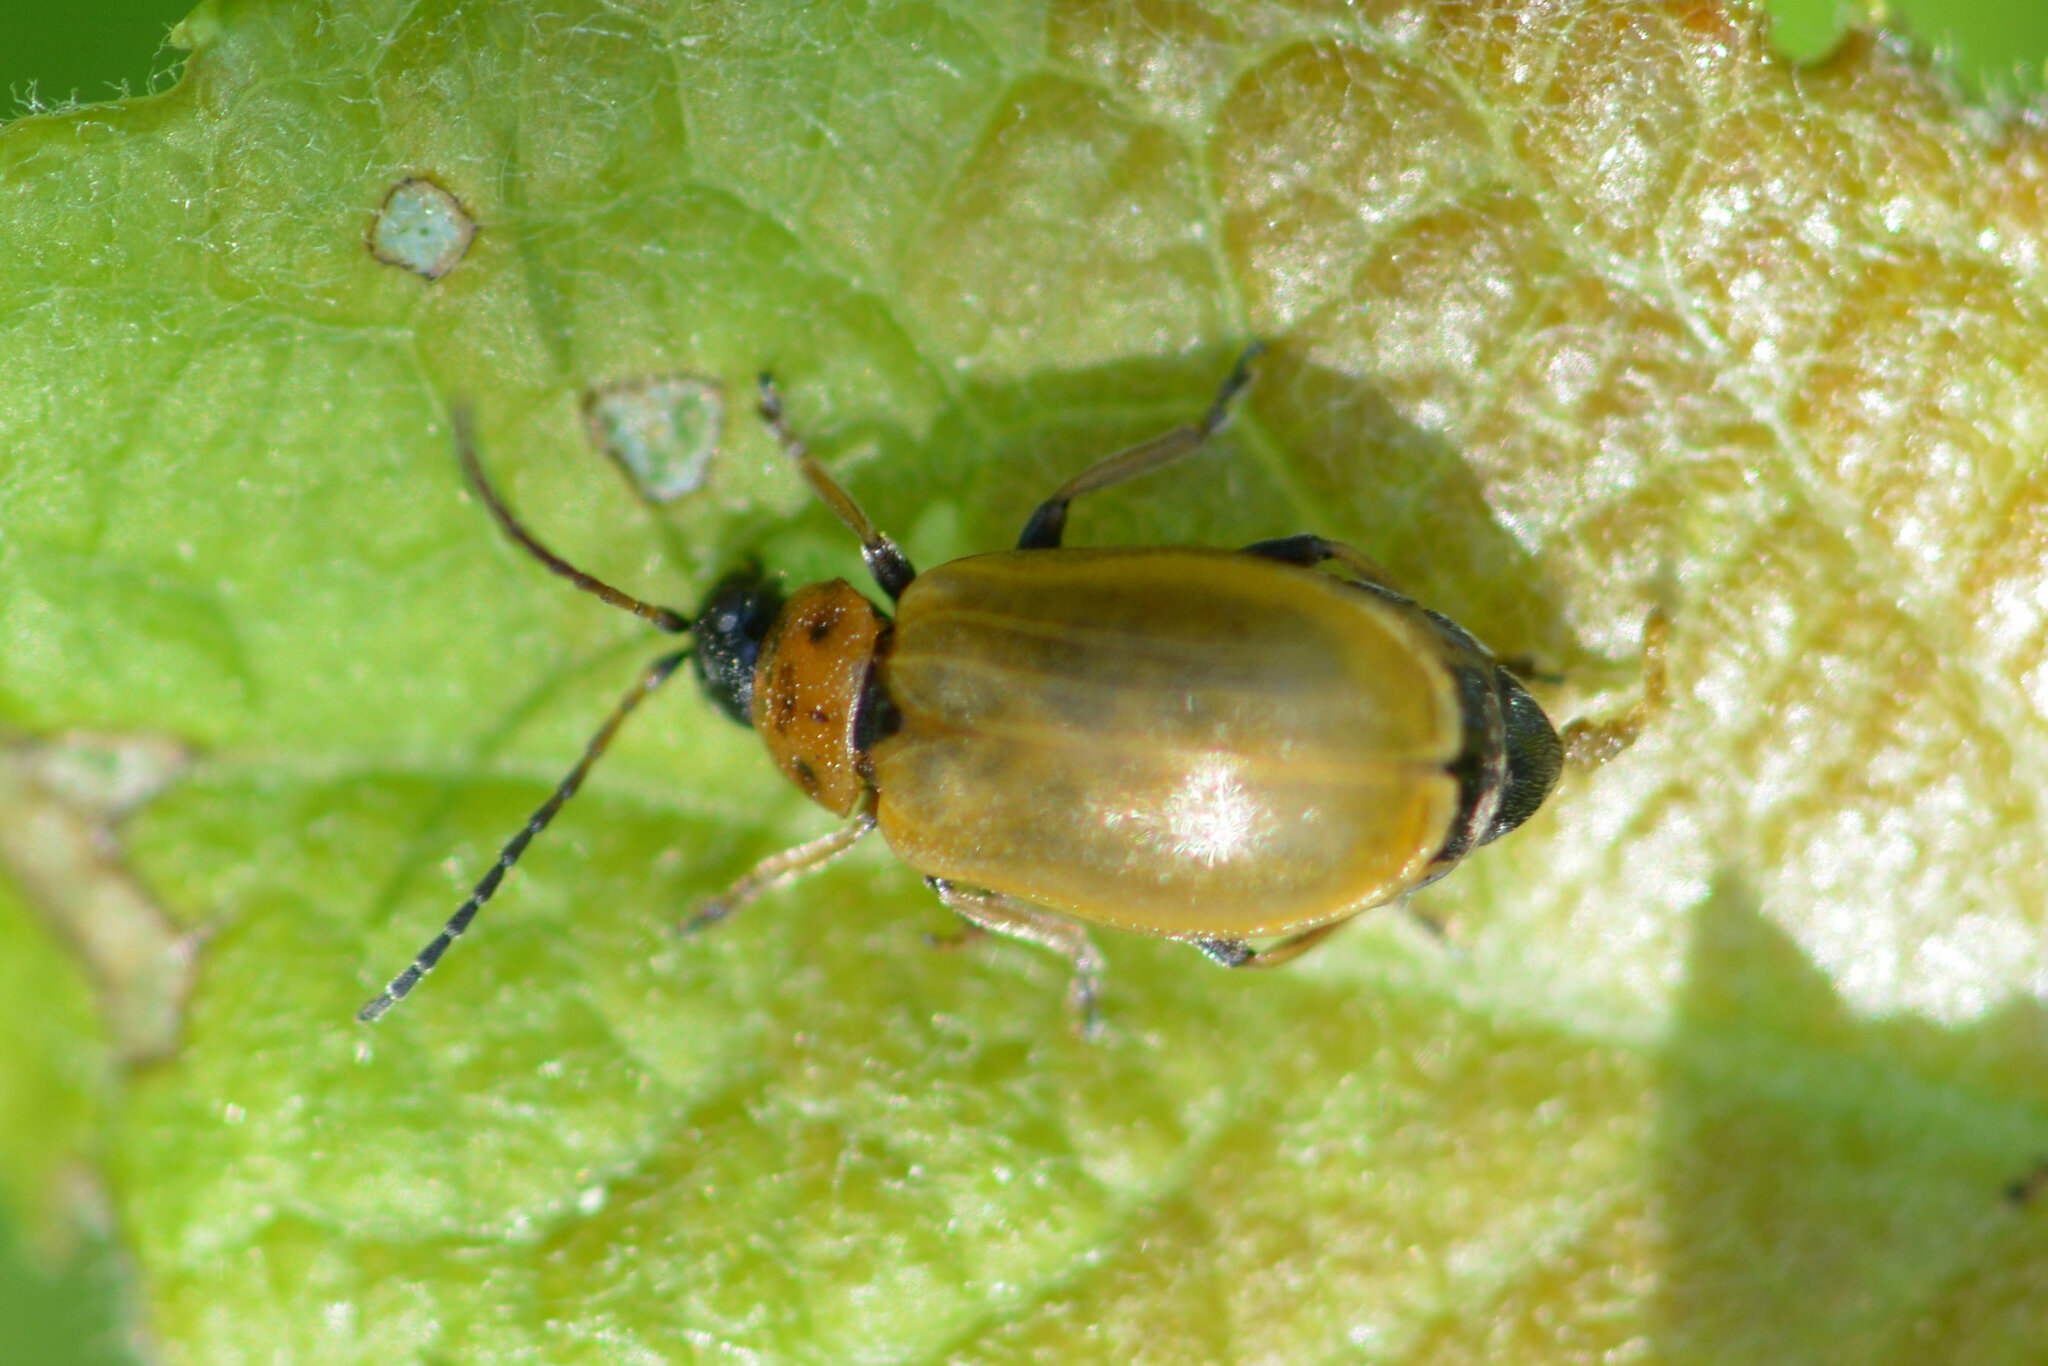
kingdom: Animalia
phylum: Arthropoda
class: Insecta
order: Coleoptera
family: Chrysomelidae
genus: Lochmaea
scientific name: Lochmaea caprea
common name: Willow leaf beetle
